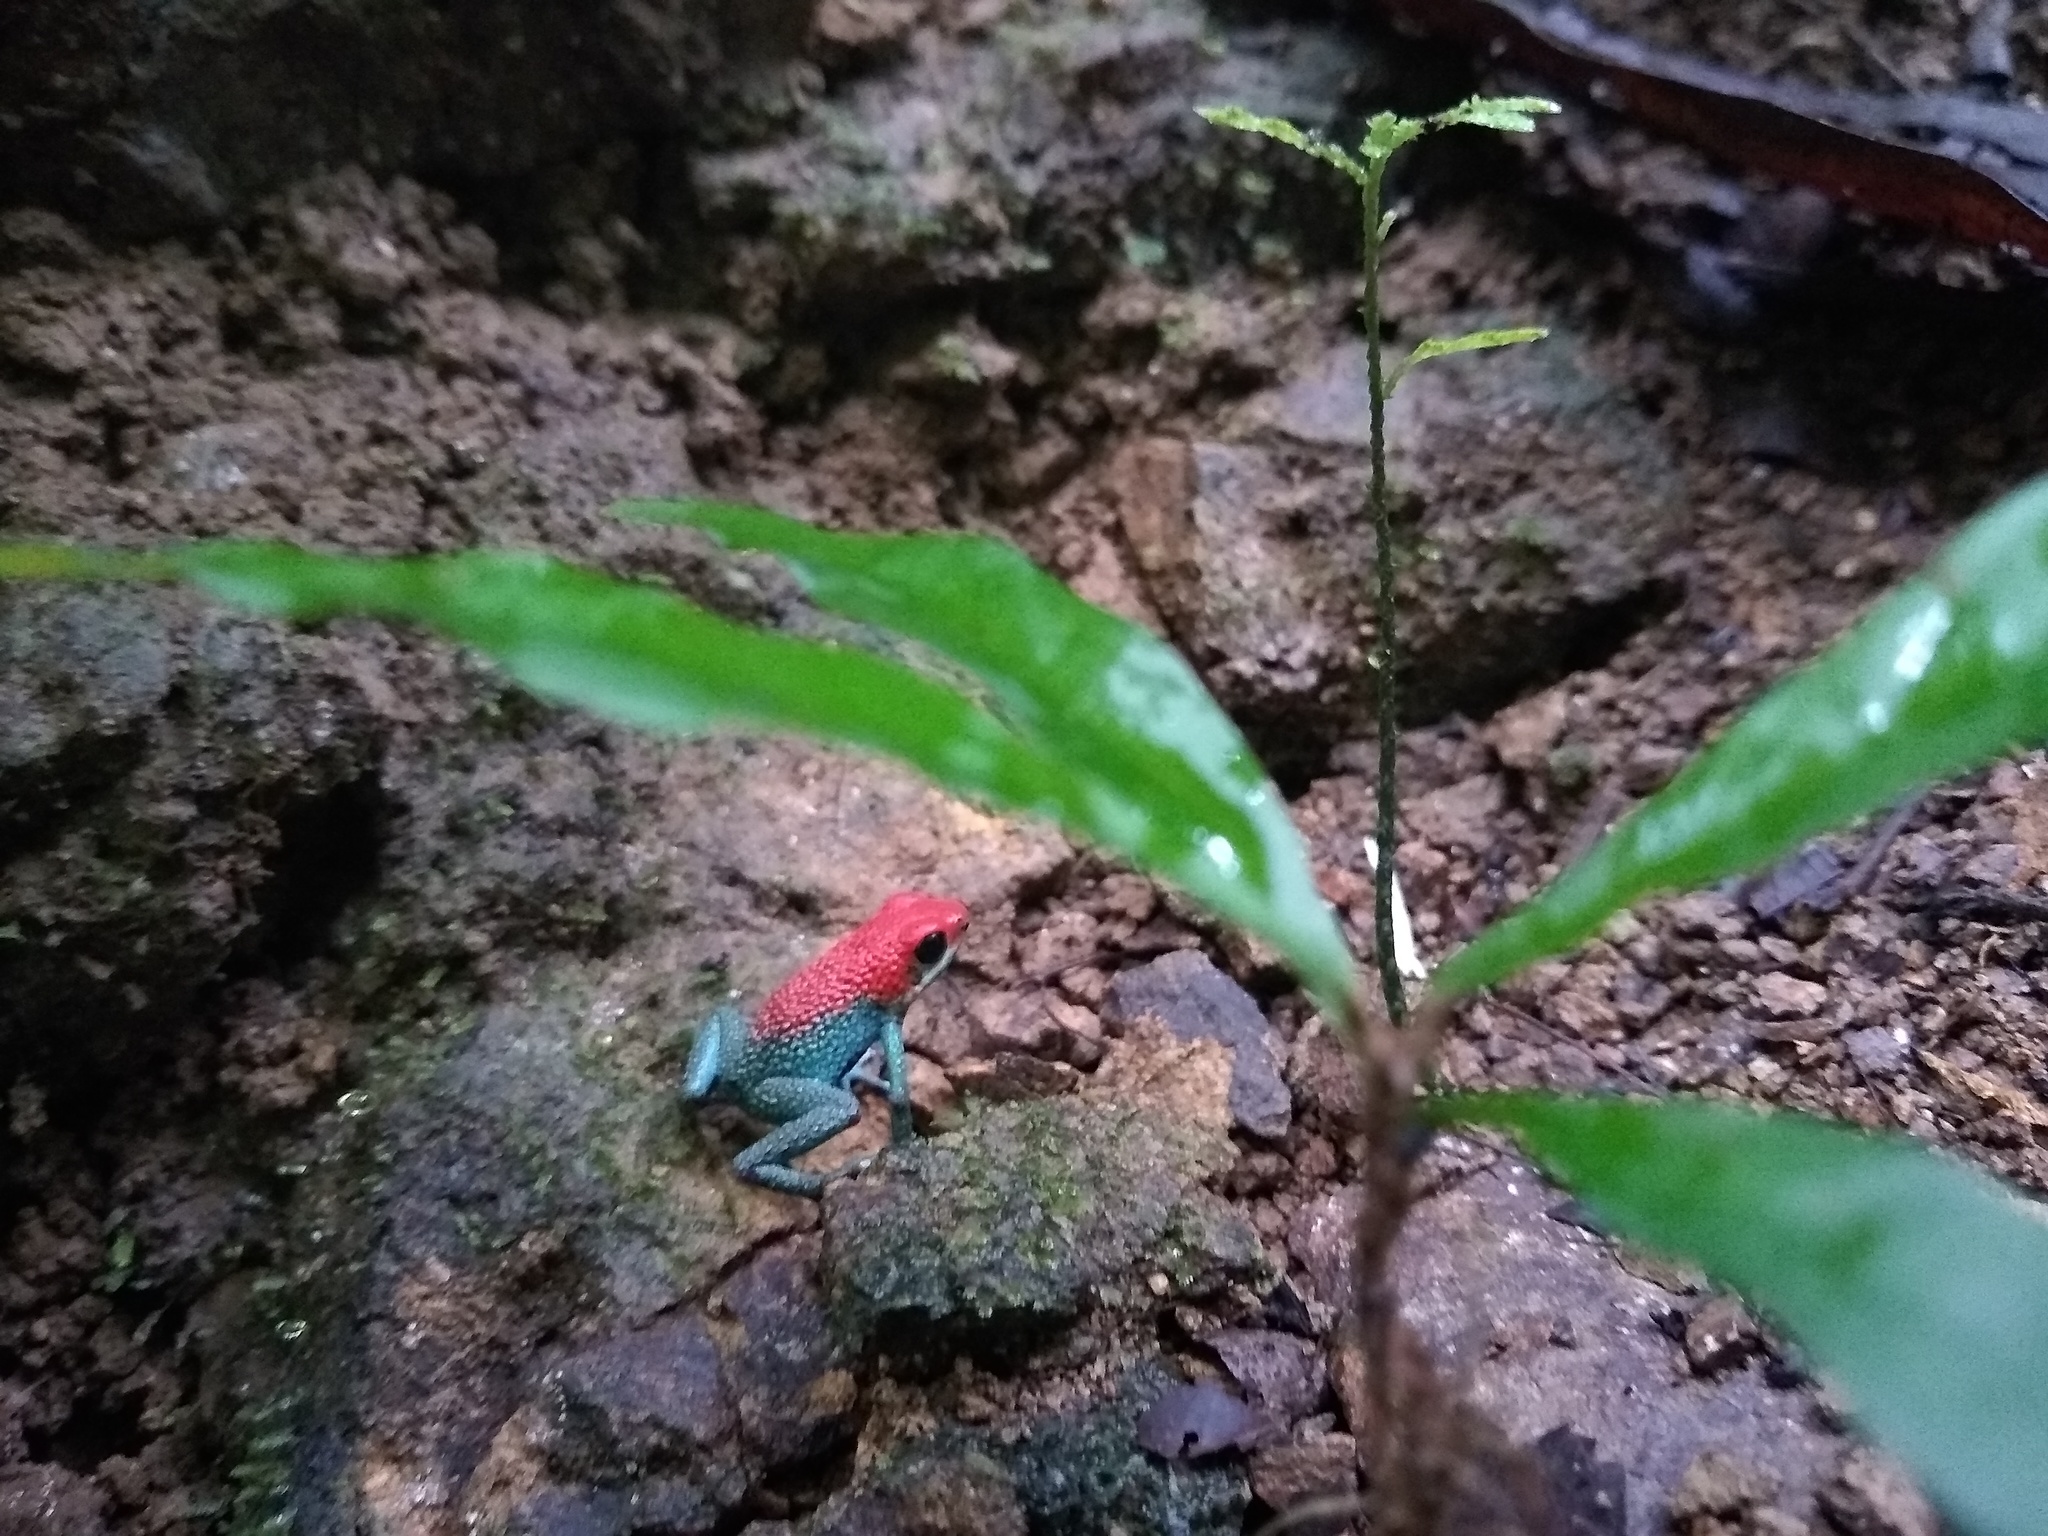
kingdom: Animalia
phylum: Chordata
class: Amphibia
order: Anura
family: Dendrobatidae
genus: Oophaga
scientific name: Oophaga granulifera
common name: Granular poison frog
